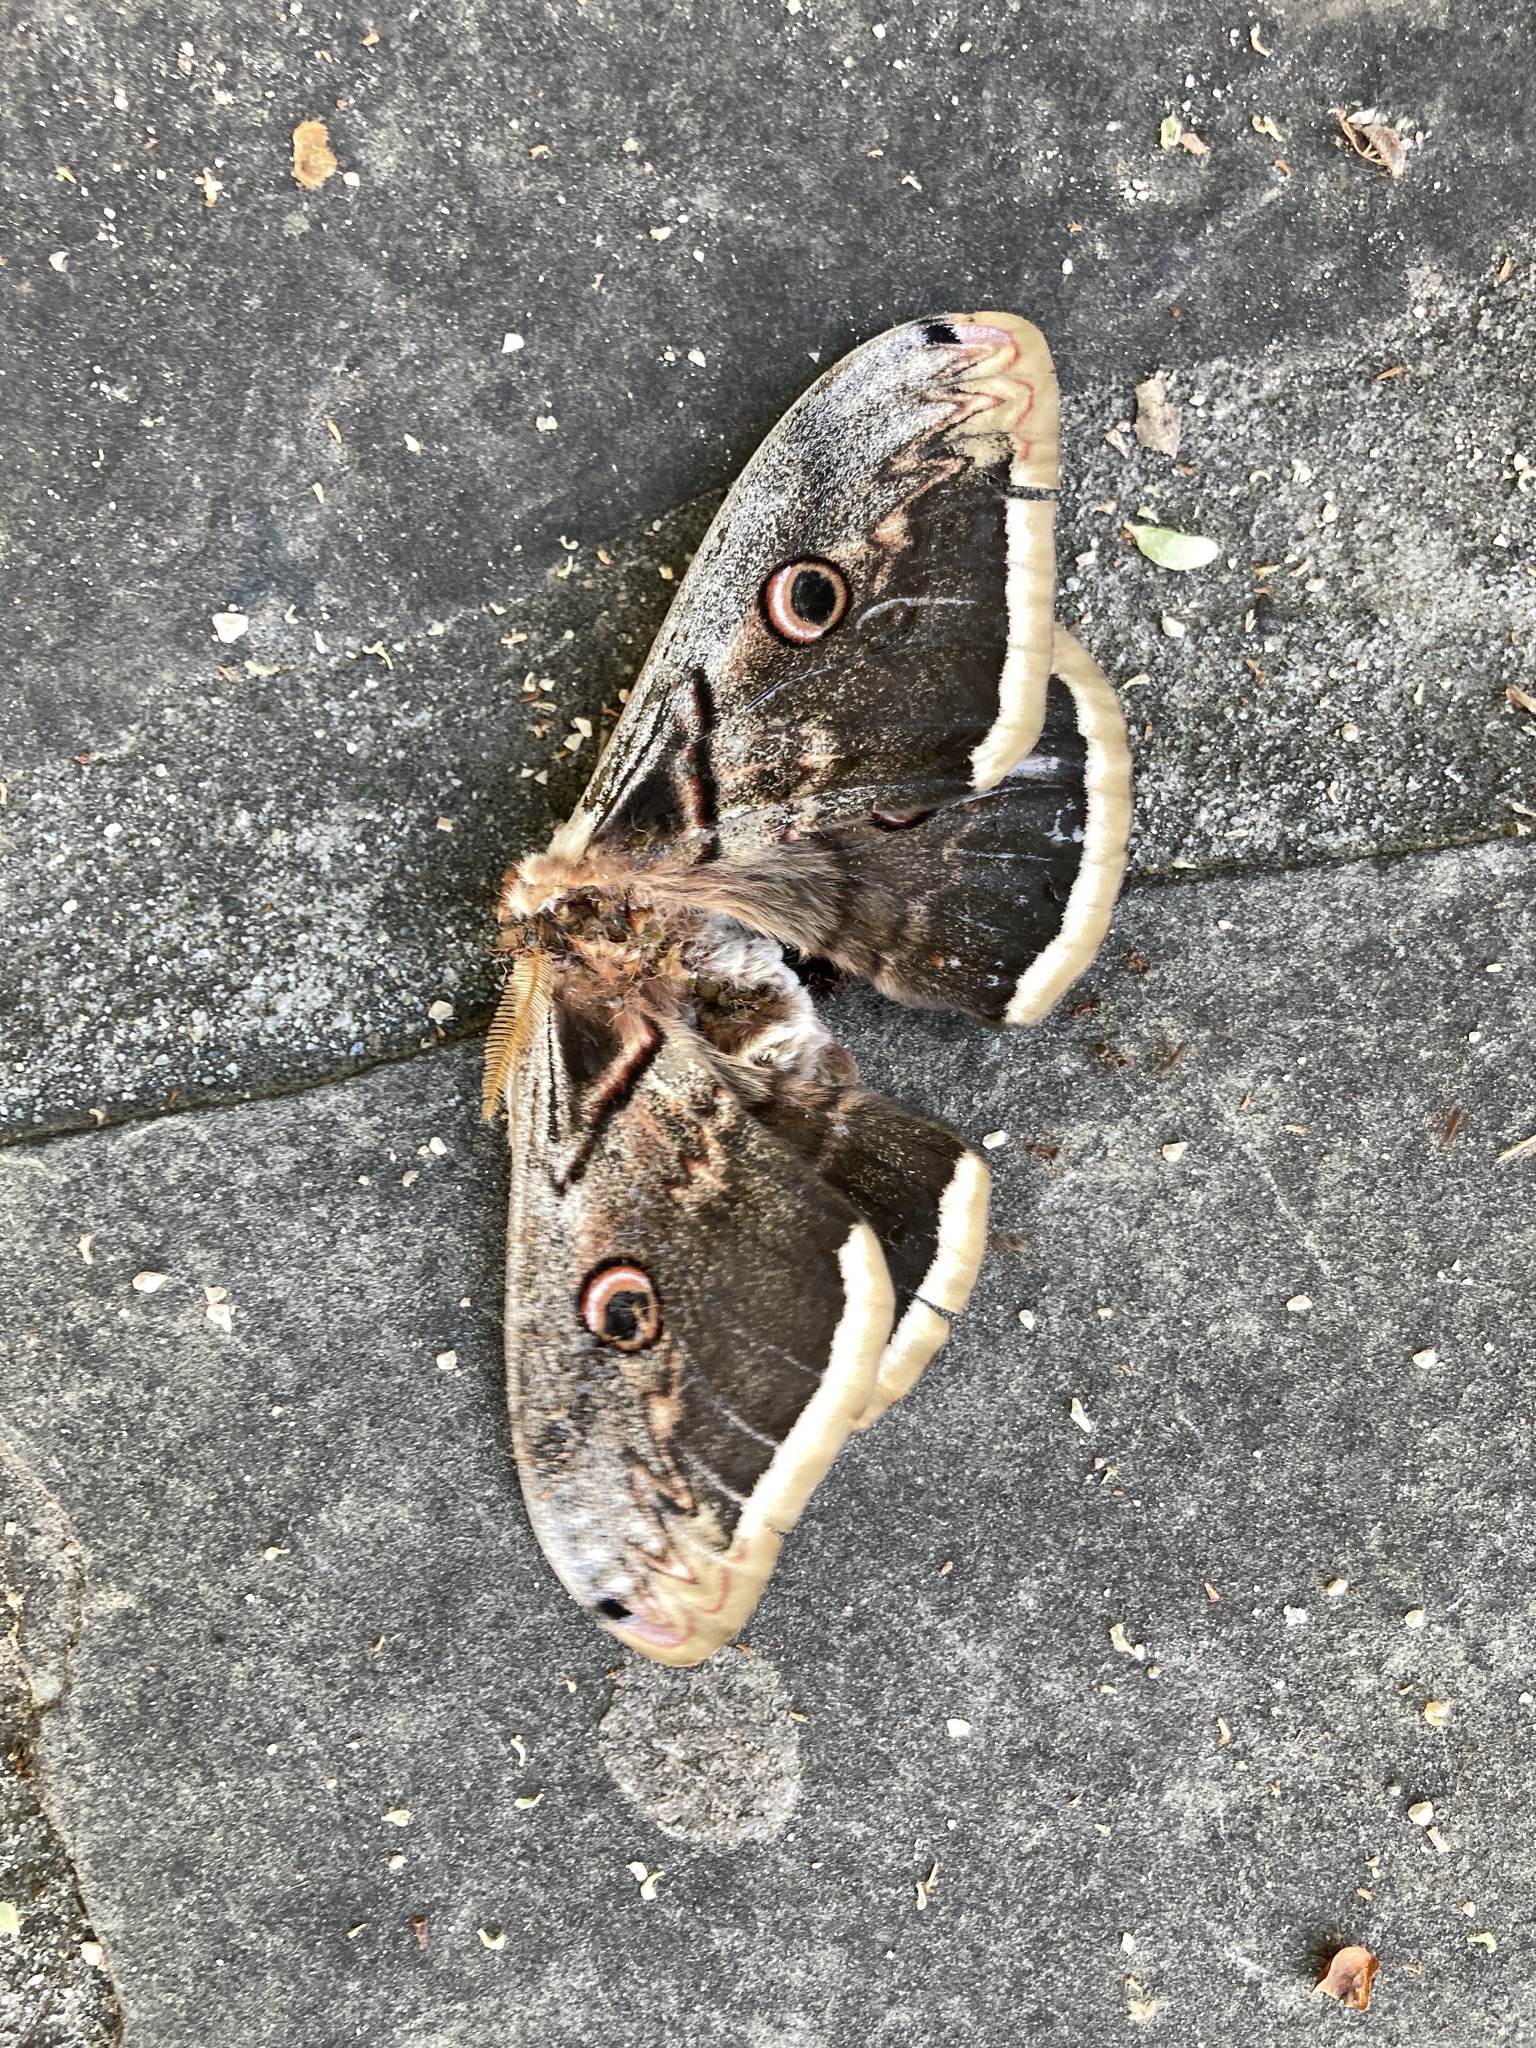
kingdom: Animalia
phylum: Arthropoda
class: Insecta
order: Lepidoptera
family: Saturniidae
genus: Saturnia
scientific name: Saturnia pyri
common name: Great peacock moth
